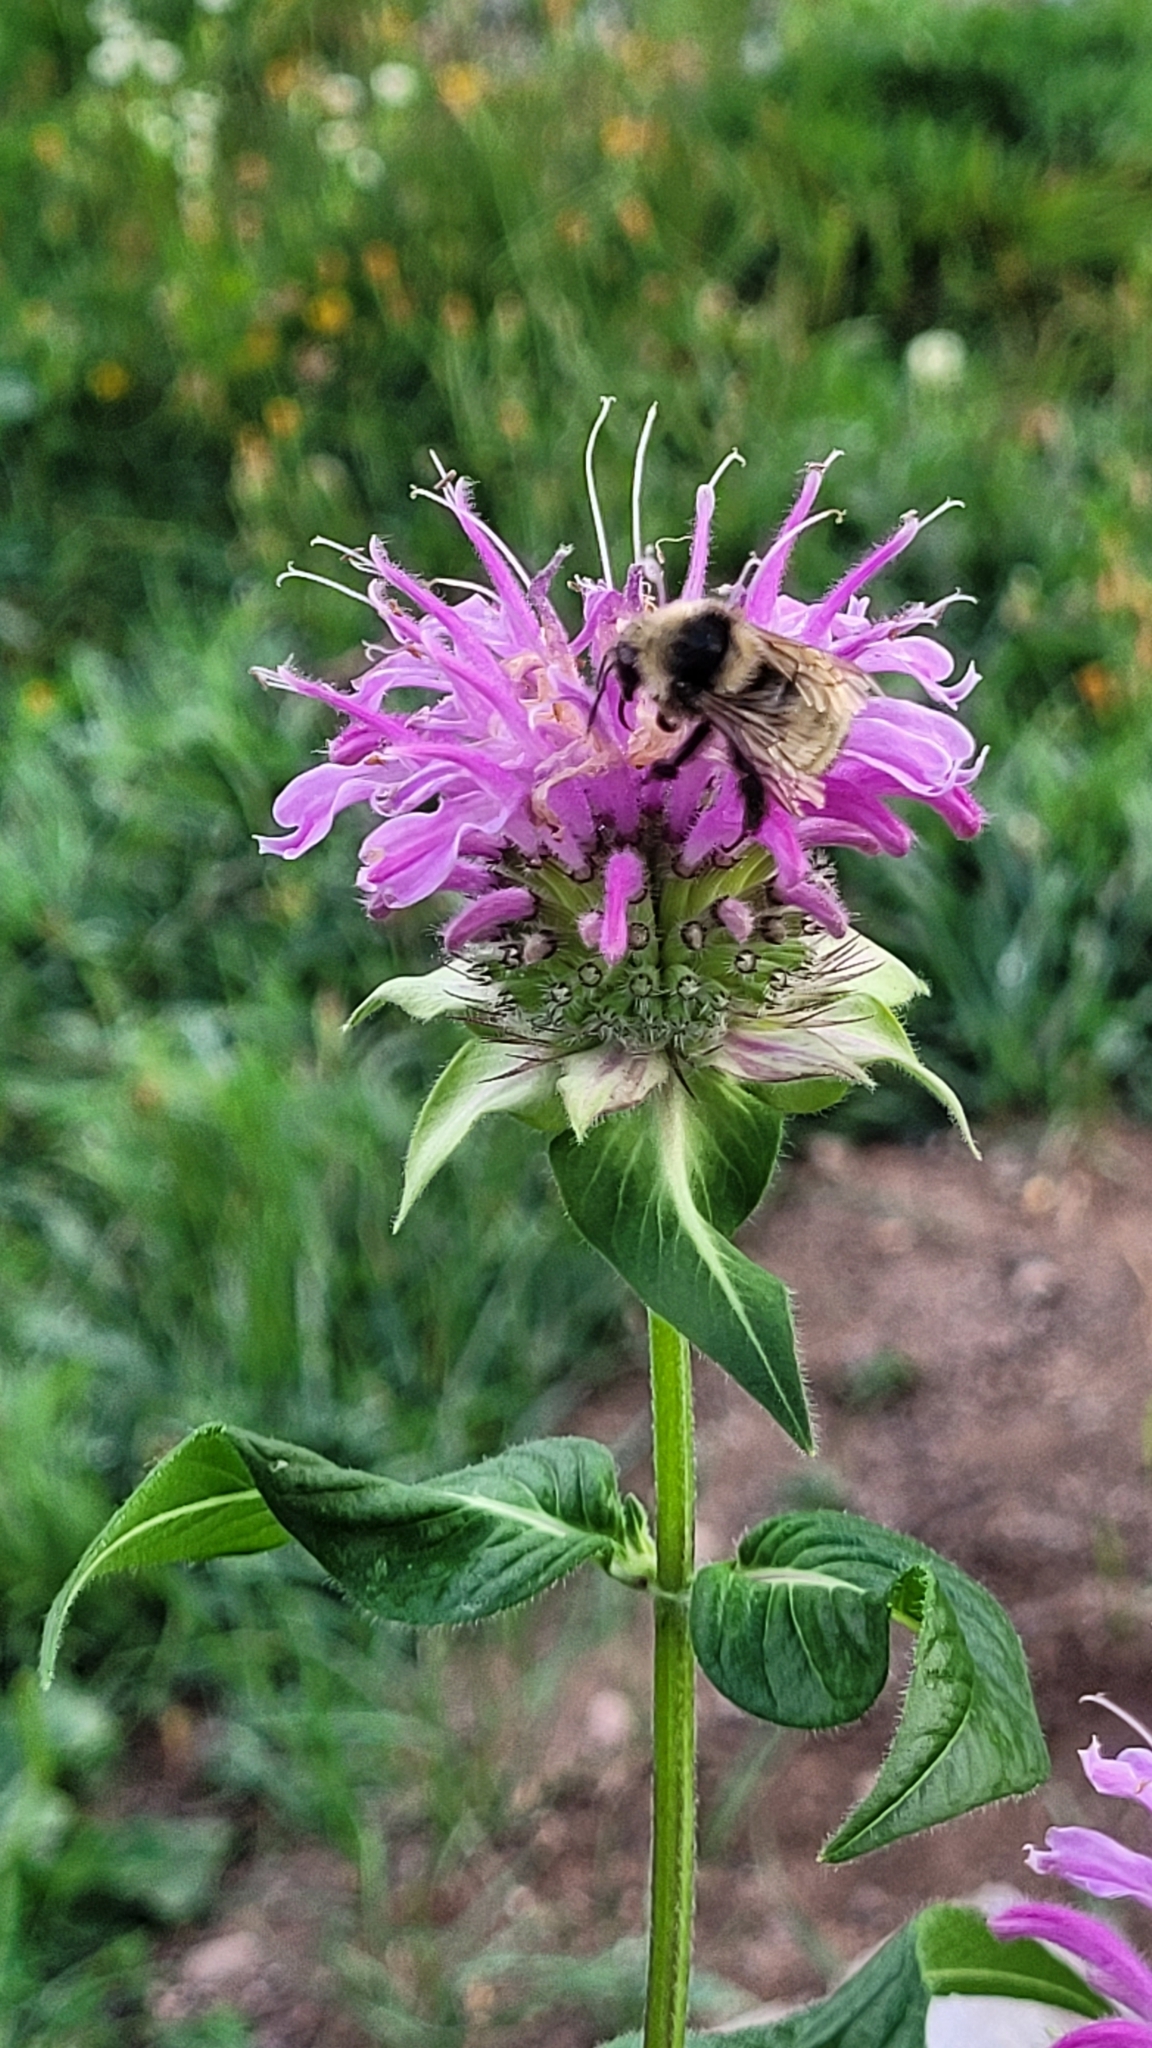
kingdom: Animalia
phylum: Arthropoda
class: Insecta
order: Hymenoptera
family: Apidae
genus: Bombus
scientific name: Bombus borealis
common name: Northern amber bumble bee
